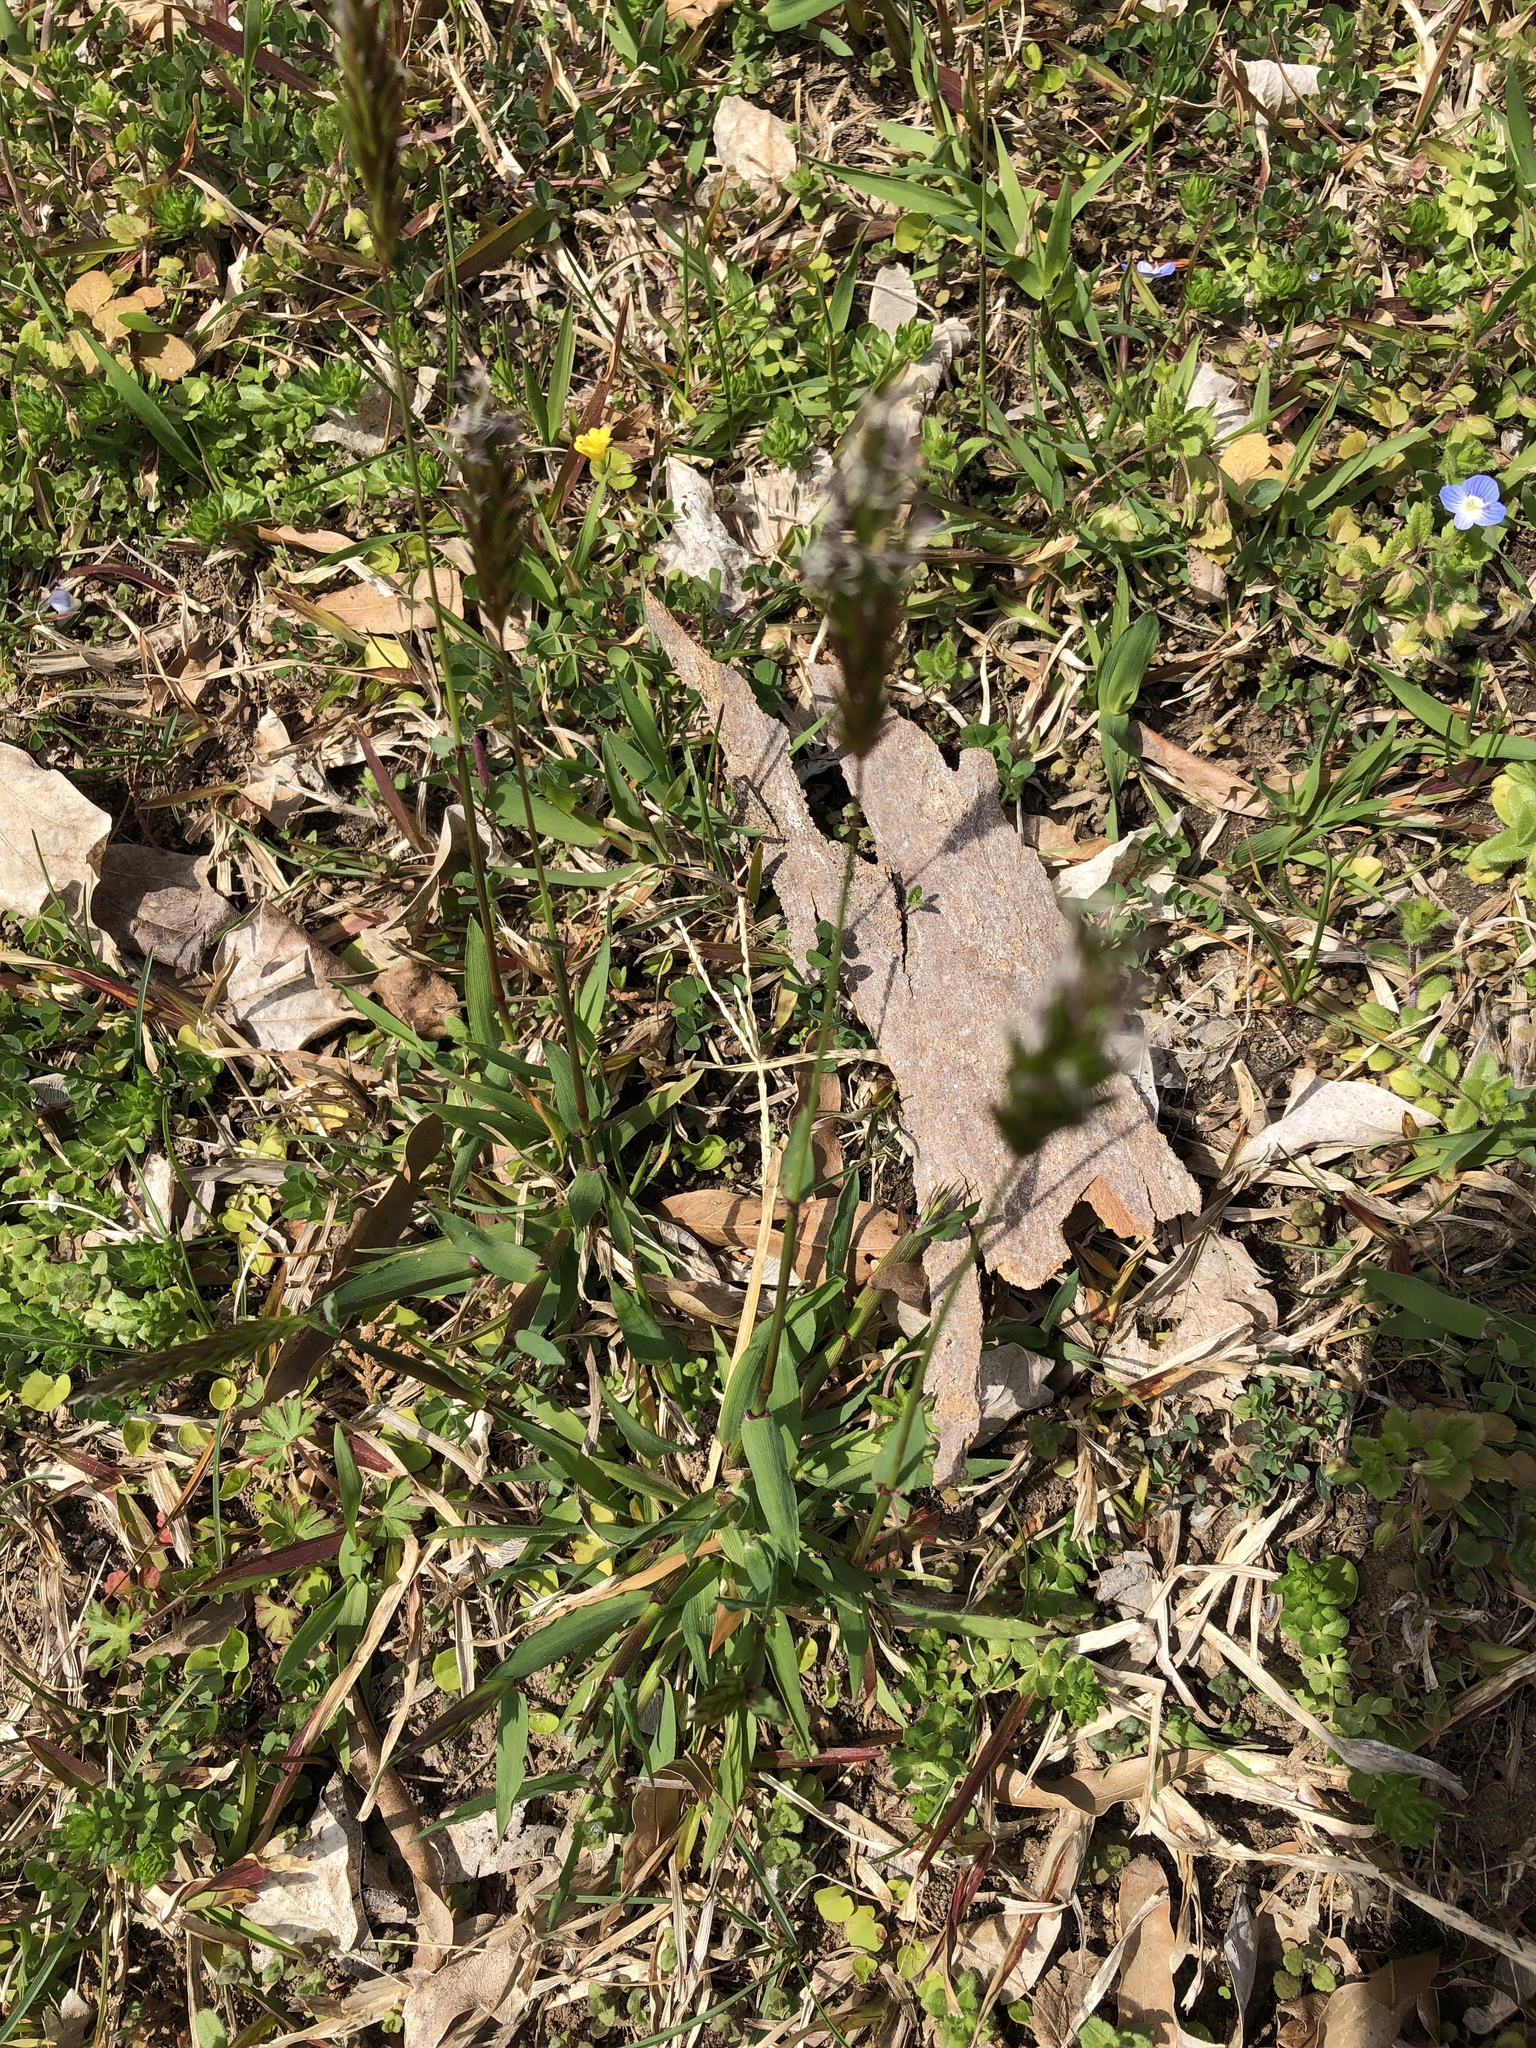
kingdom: Plantae
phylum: Tracheophyta
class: Liliopsida
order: Poales
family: Poaceae
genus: Anthoxanthum
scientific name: Anthoxanthum odoratum
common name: Sweet vernalgrass
